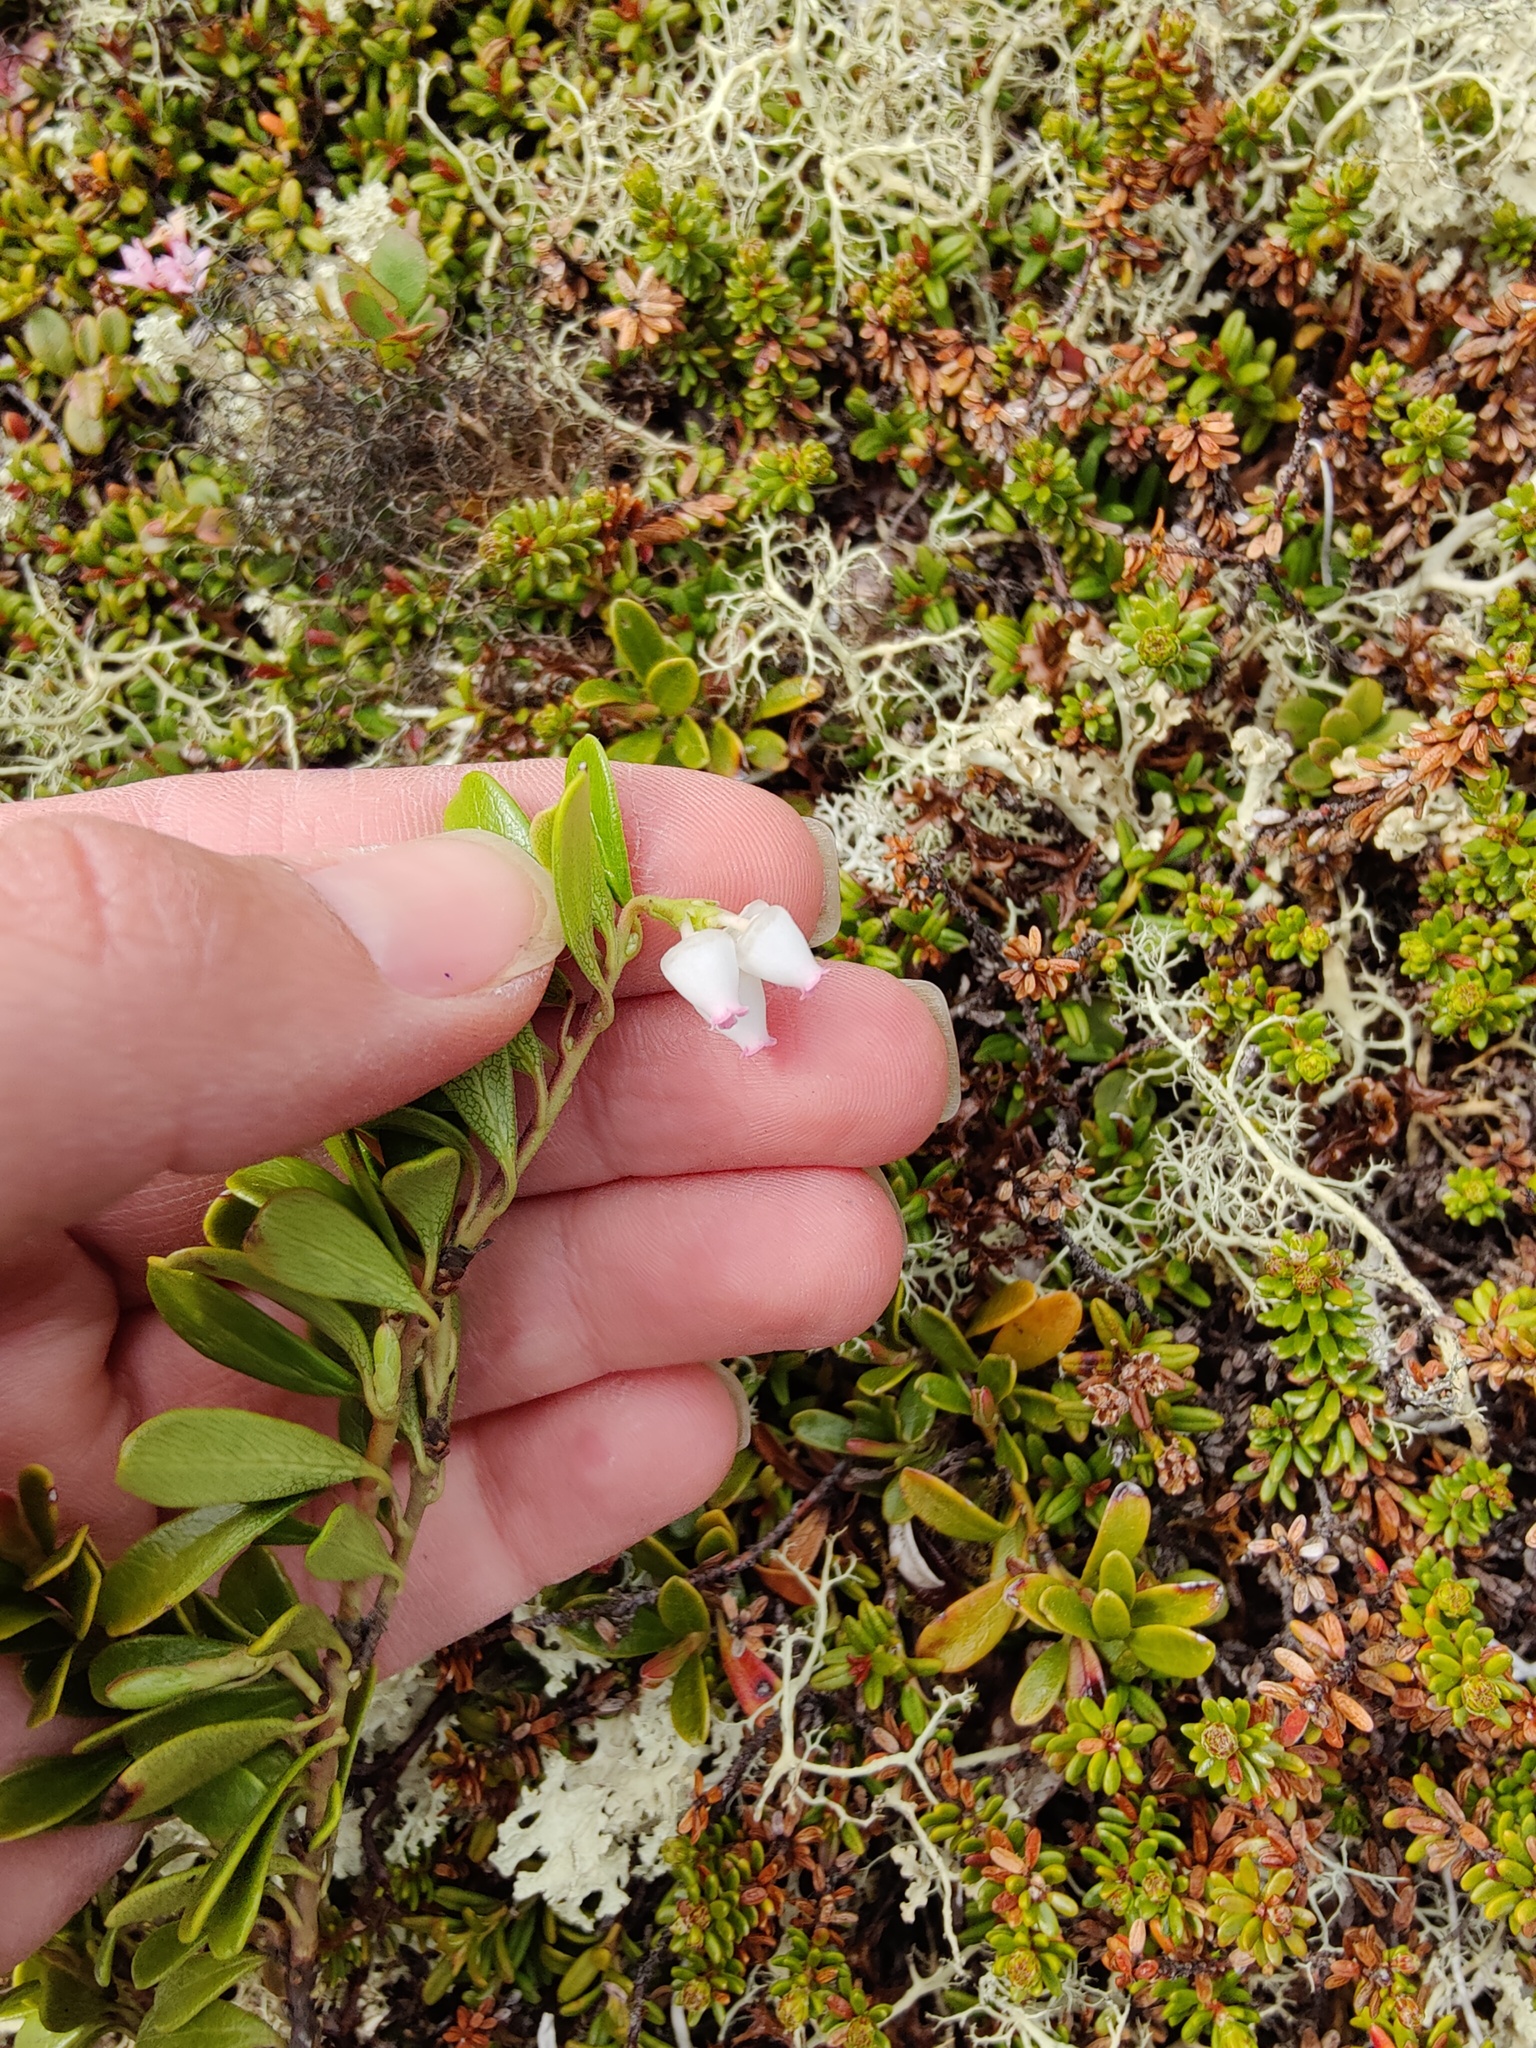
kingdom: Plantae
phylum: Tracheophyta
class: Magnoliopsida
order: Ericales
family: Ericaceae
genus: Arctostaphylos
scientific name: Arctostaphylos uva-ursi
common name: Bearberry
